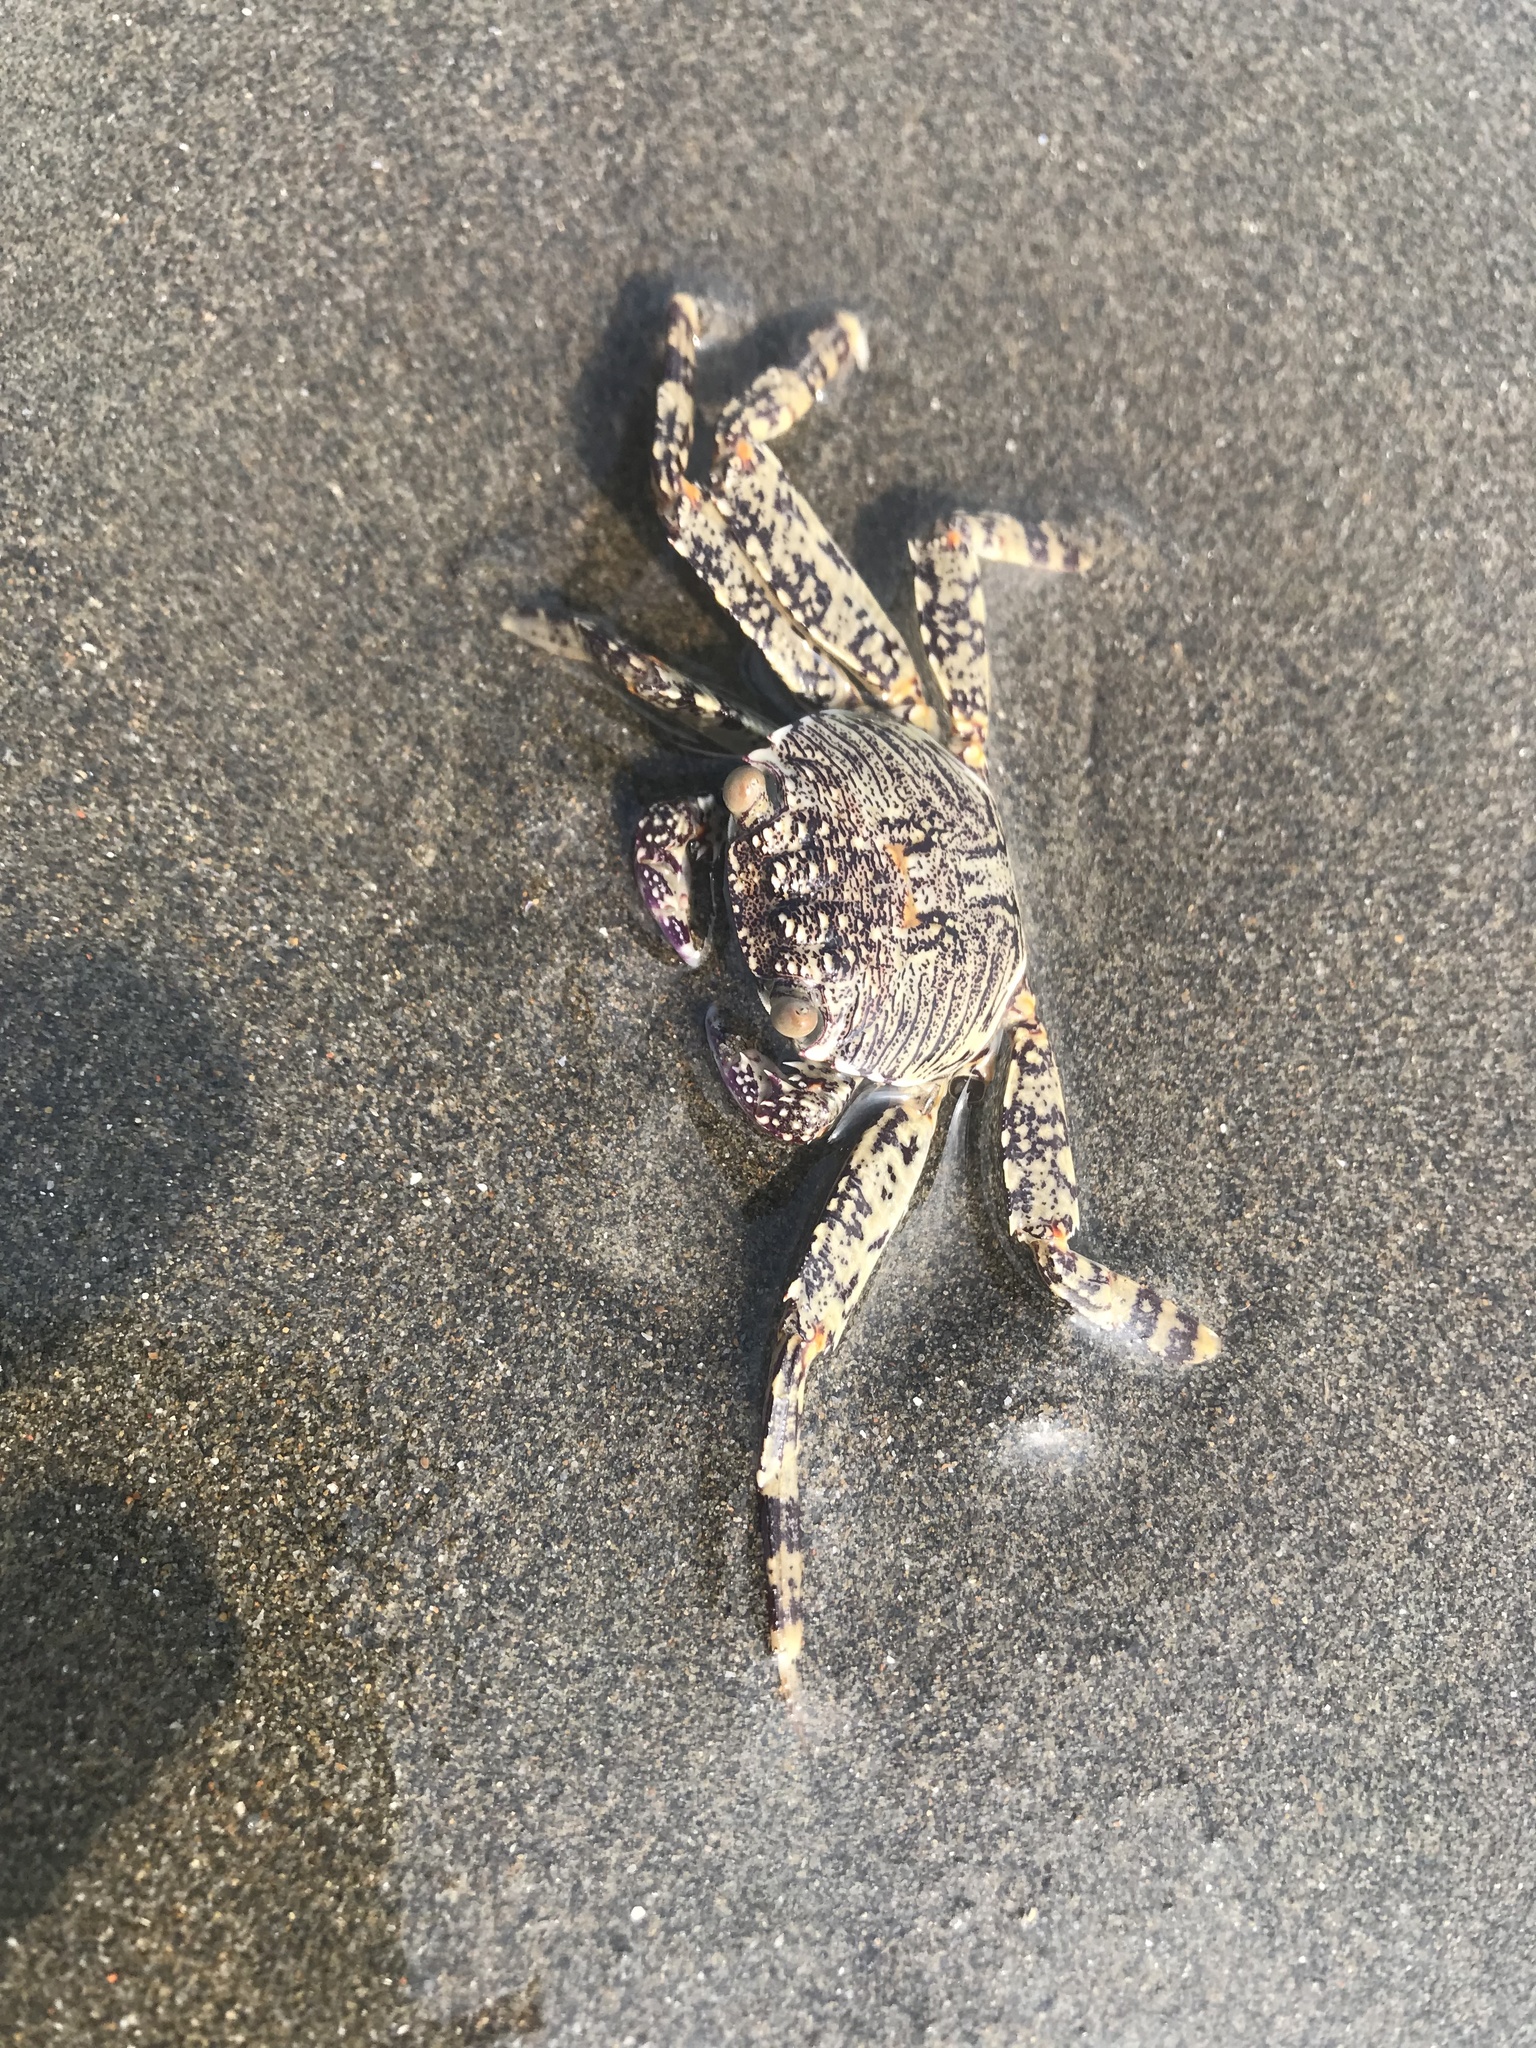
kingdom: Animalia
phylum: Arthropoda
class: Malacostraca
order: Decapoda
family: Grapsidae
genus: Grapsus
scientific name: Grapsus albolineatus
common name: Mottled lightfoot crab
